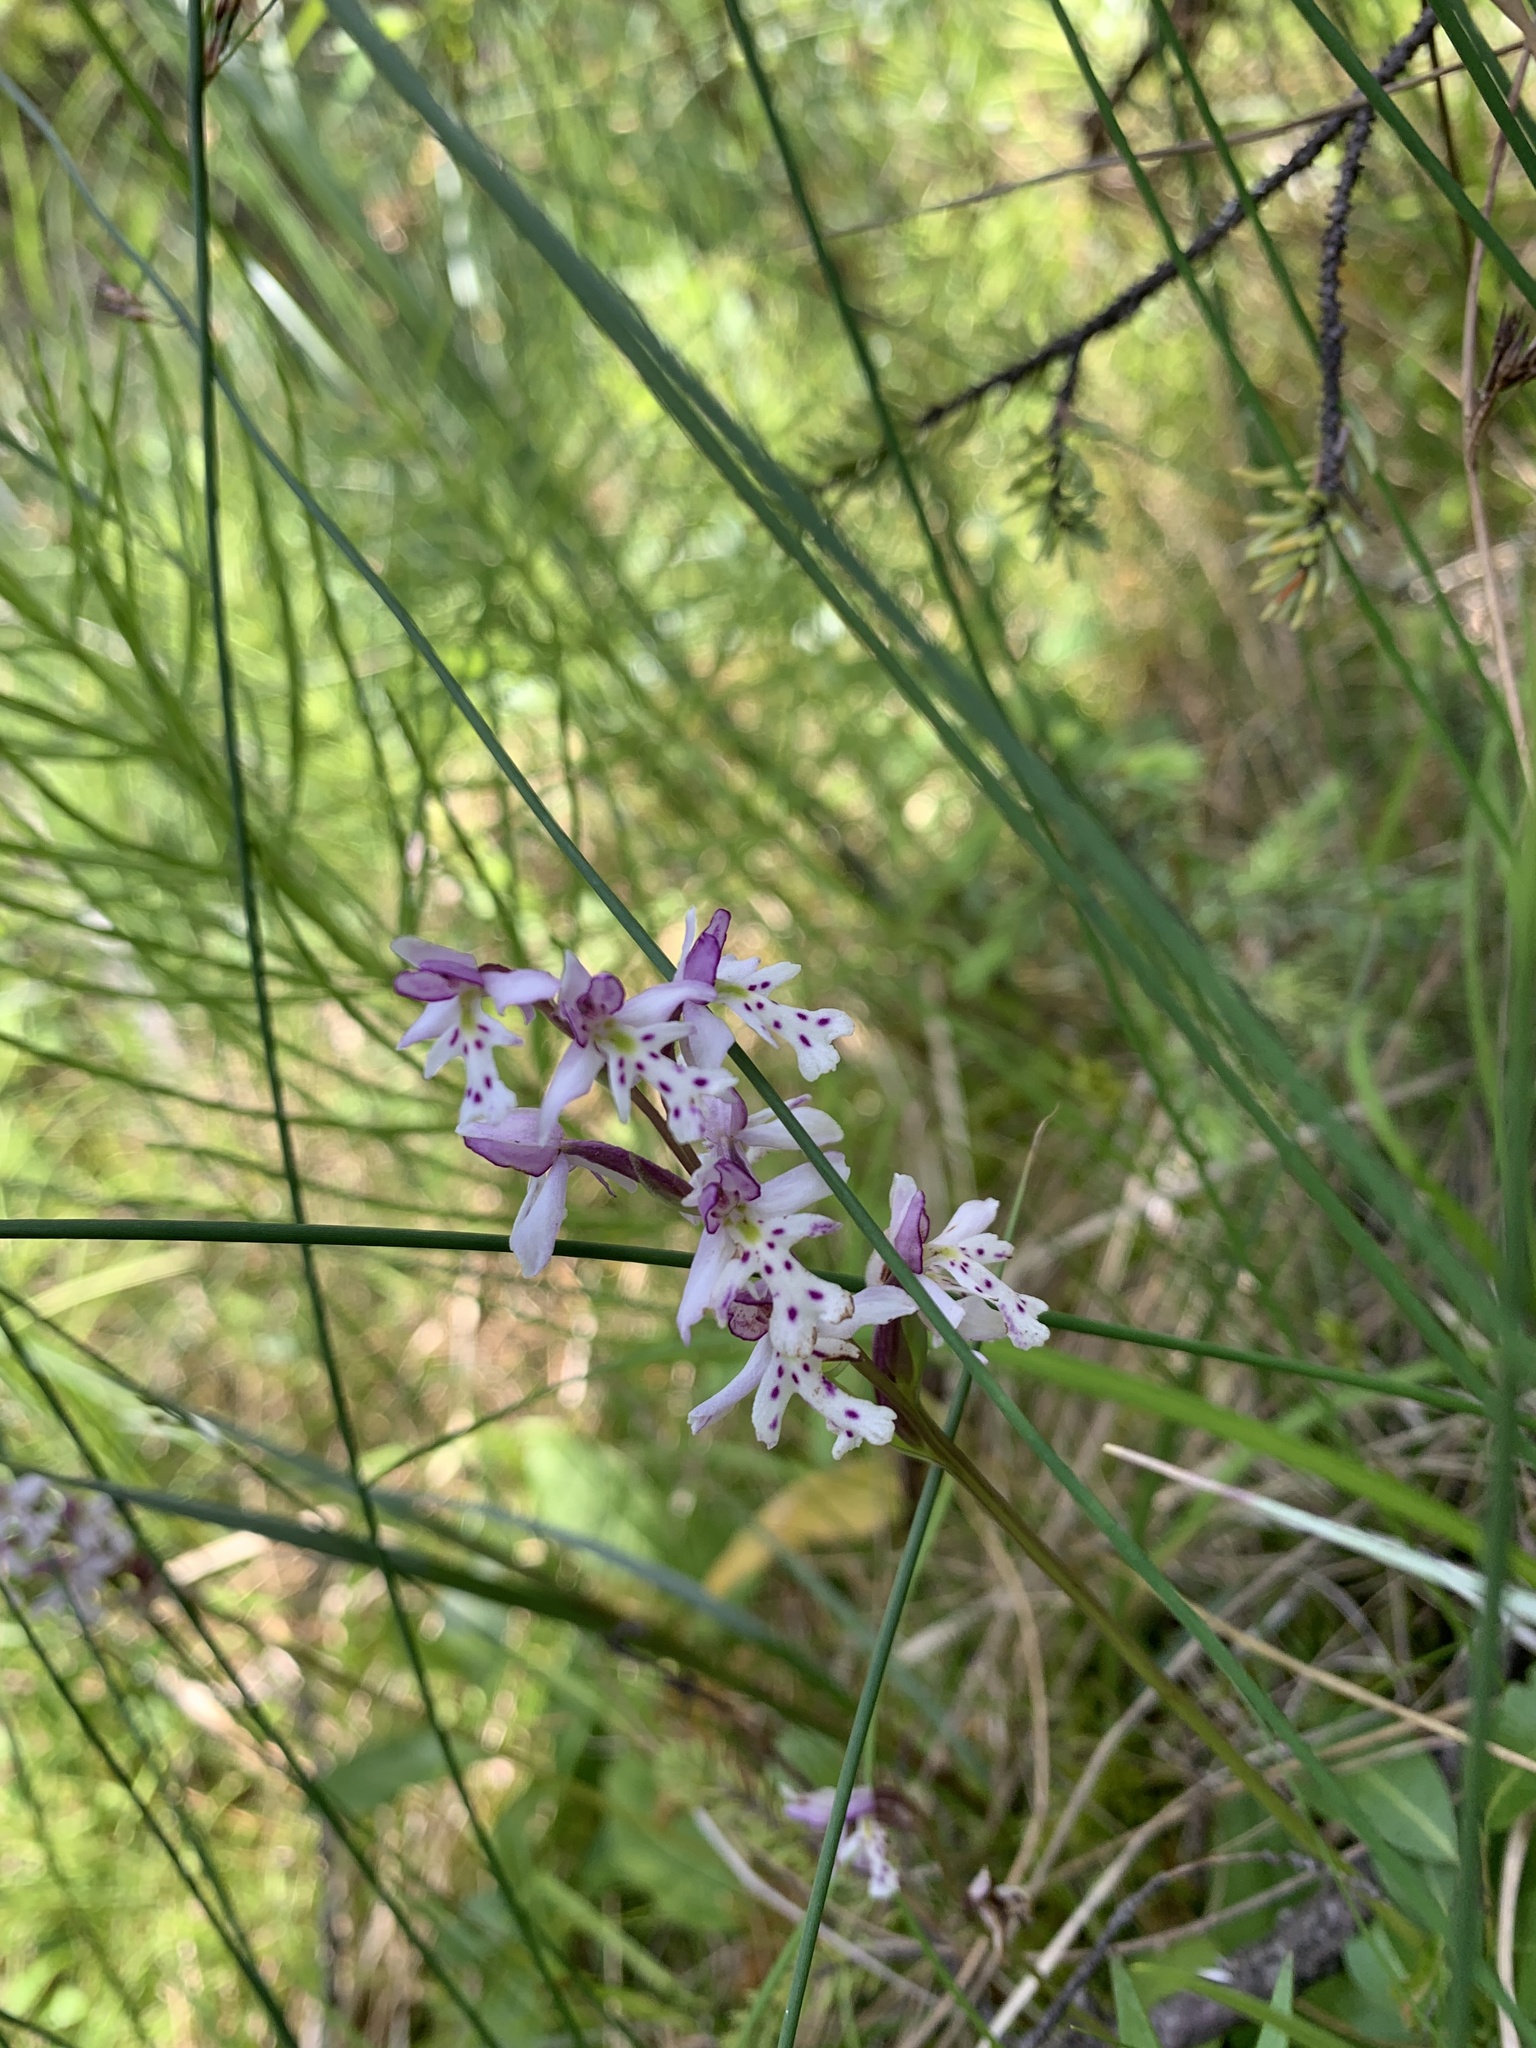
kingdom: Plantae
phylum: Tracheophyta
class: Liliopsida
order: Asparagales
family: Orchidaceae
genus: Galearis
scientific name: Galearis rotundifolia
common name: One-leaved orchis
